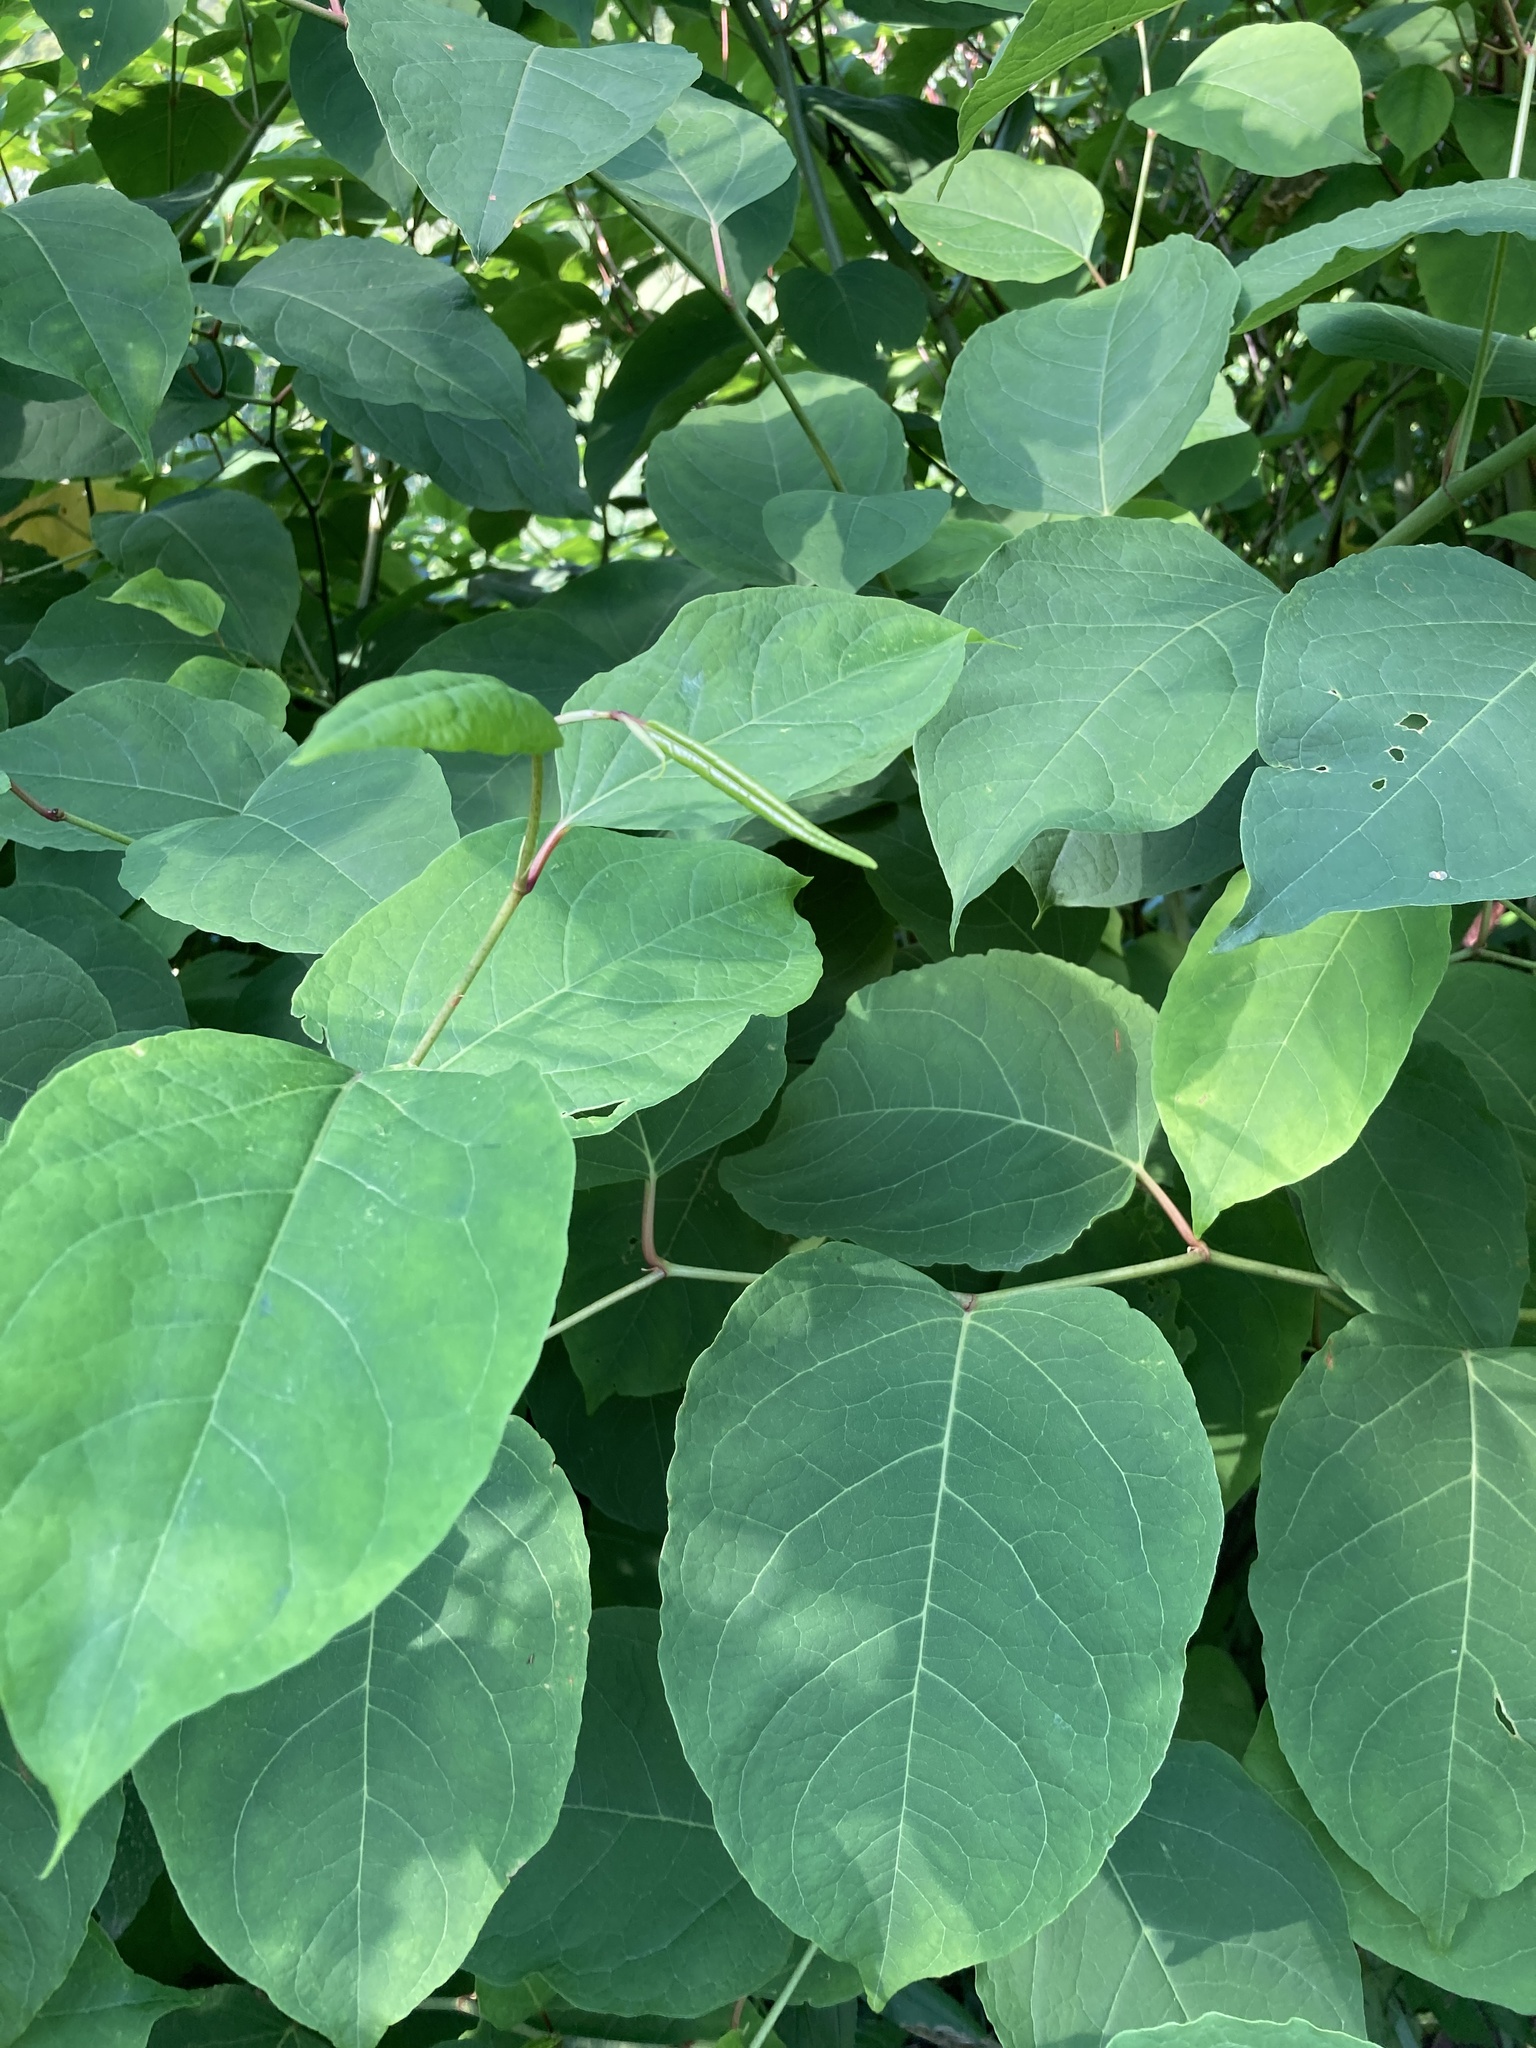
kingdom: Plantae
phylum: Tracheophyta
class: Magnoliopsida
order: Caryophyllales
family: Polygonaceae
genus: Reynoutria
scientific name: Reynoutria bohemica
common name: Bohemian knotweed
